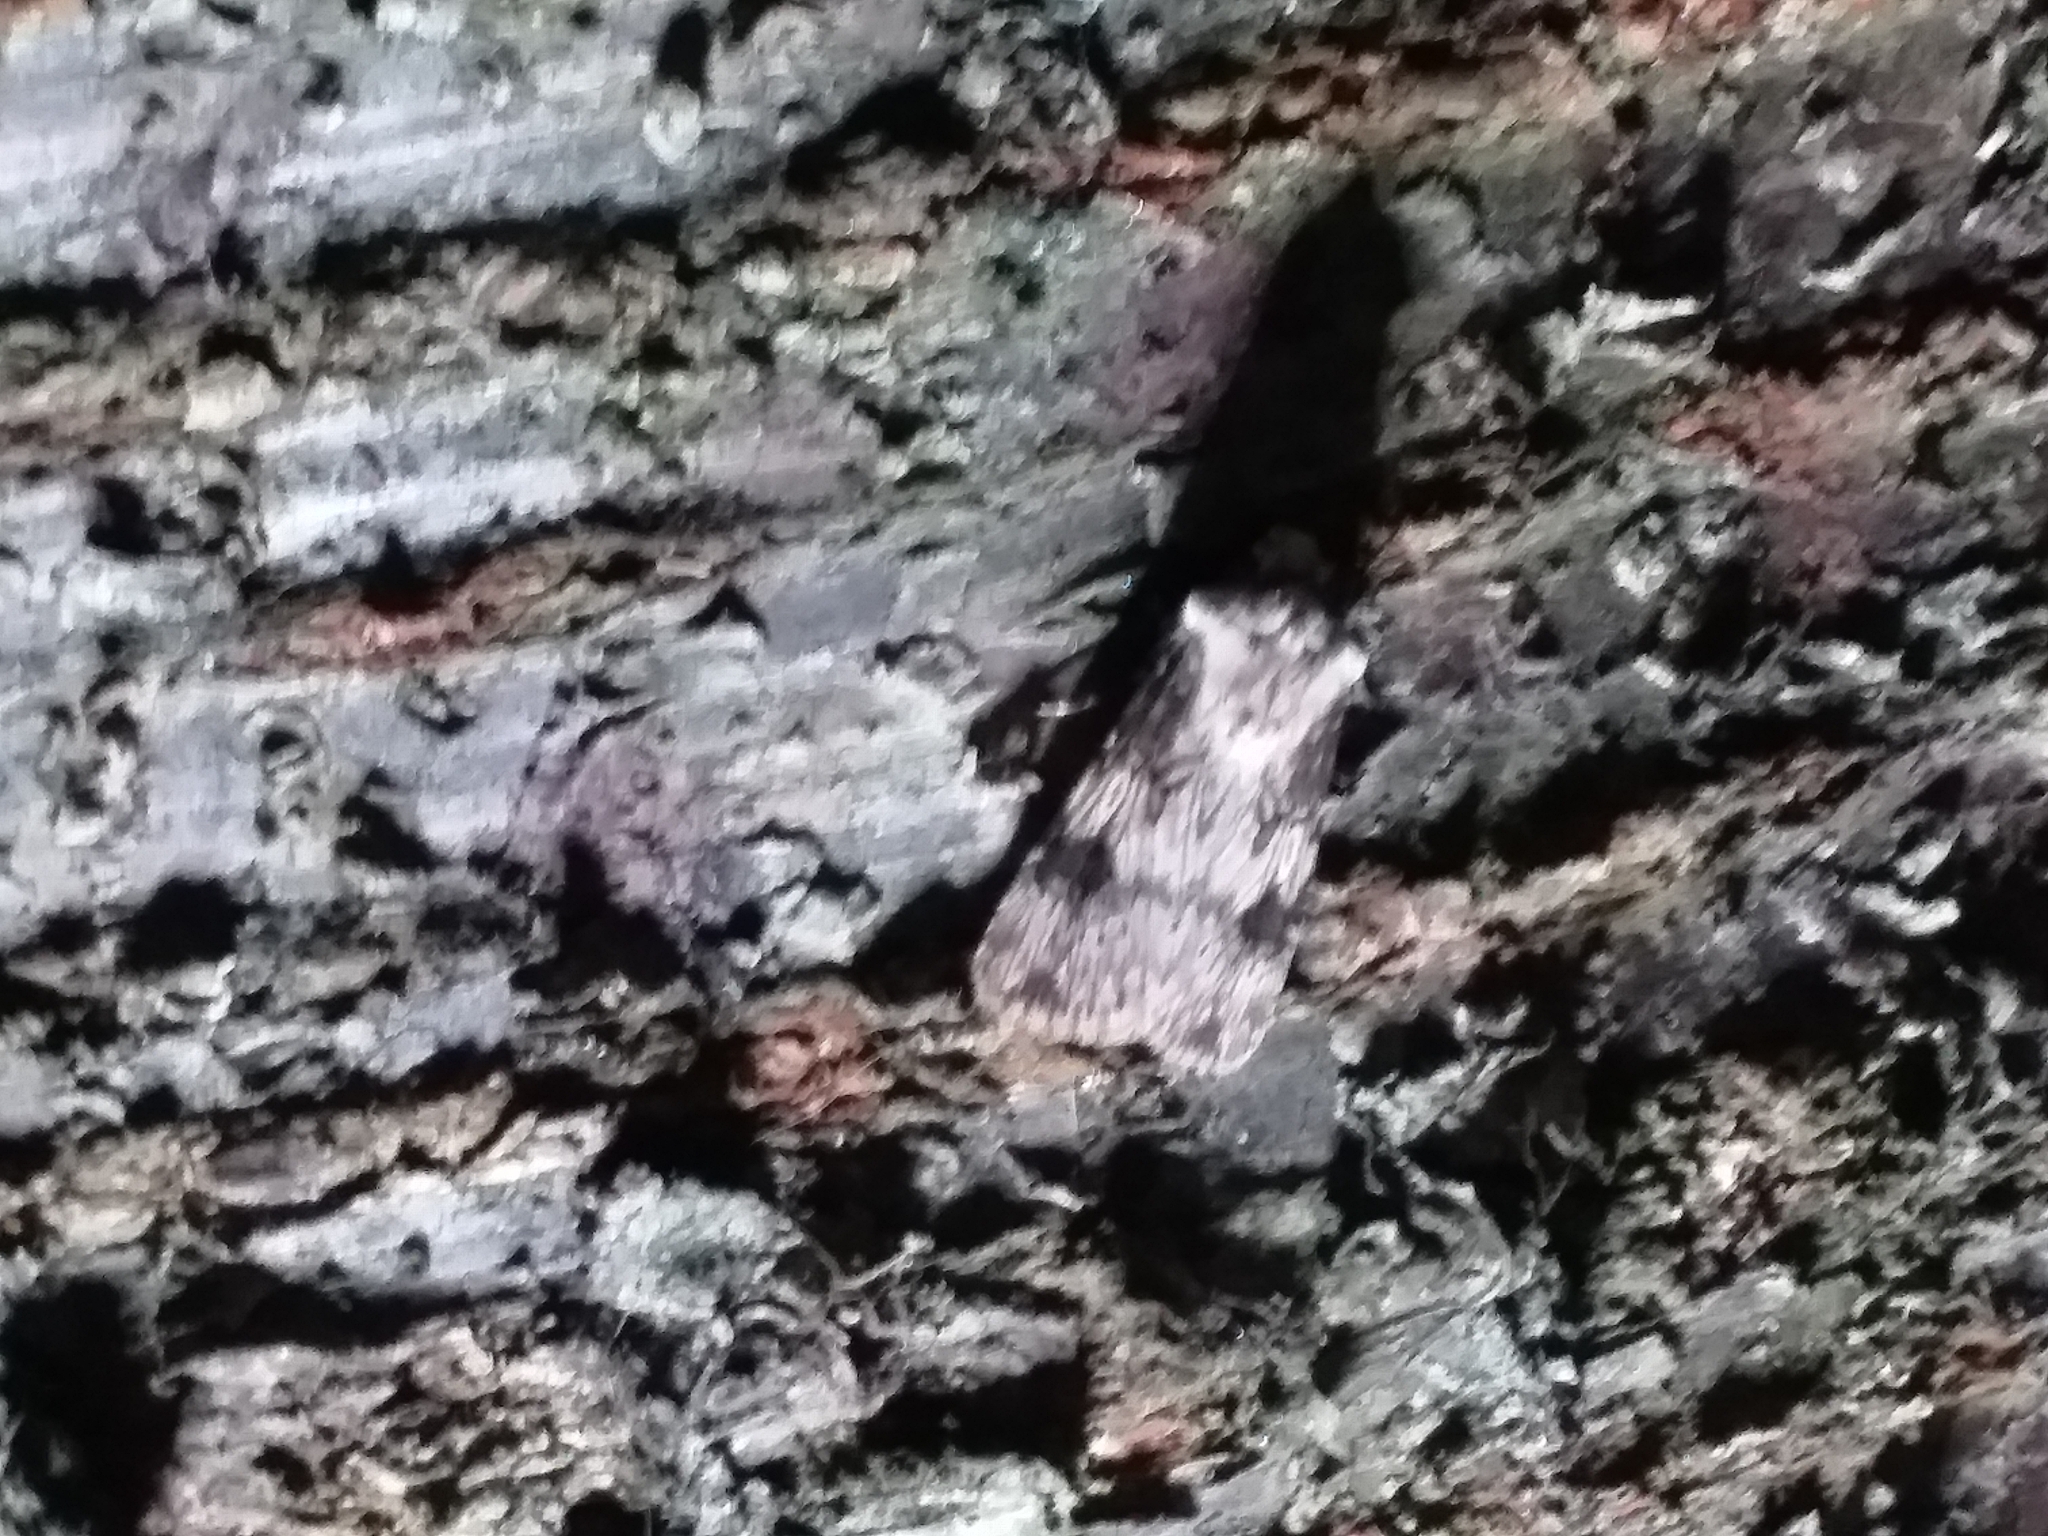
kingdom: Animalia
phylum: Arthropoda
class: Insecta
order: Lepidoptera
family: Noctuidae
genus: Agrotis
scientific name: Agrotis puta
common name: Shuttle-shaped dart
